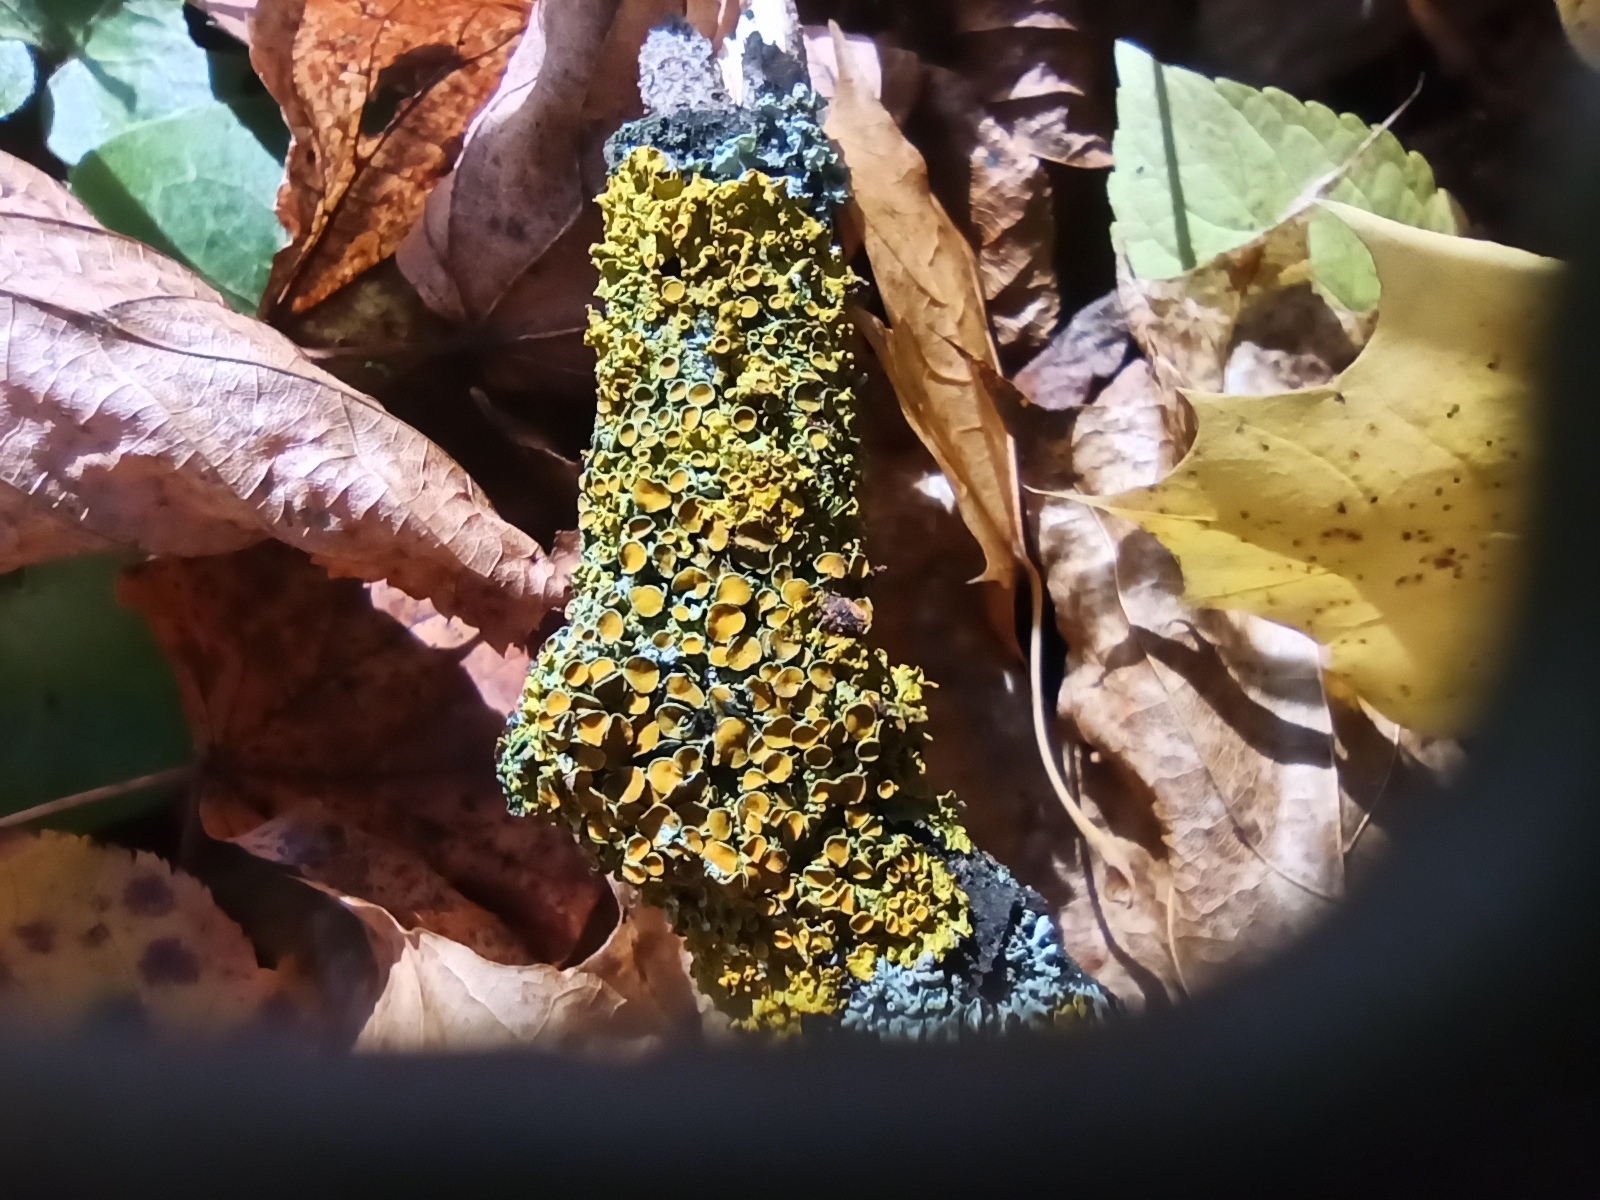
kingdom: Fungi
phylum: Ascomycota
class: Lecanoromycetes
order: Teloschistales
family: Teloschistaceae
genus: Xanthoria
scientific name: Xanthoria parietina
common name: Common orange lichen
